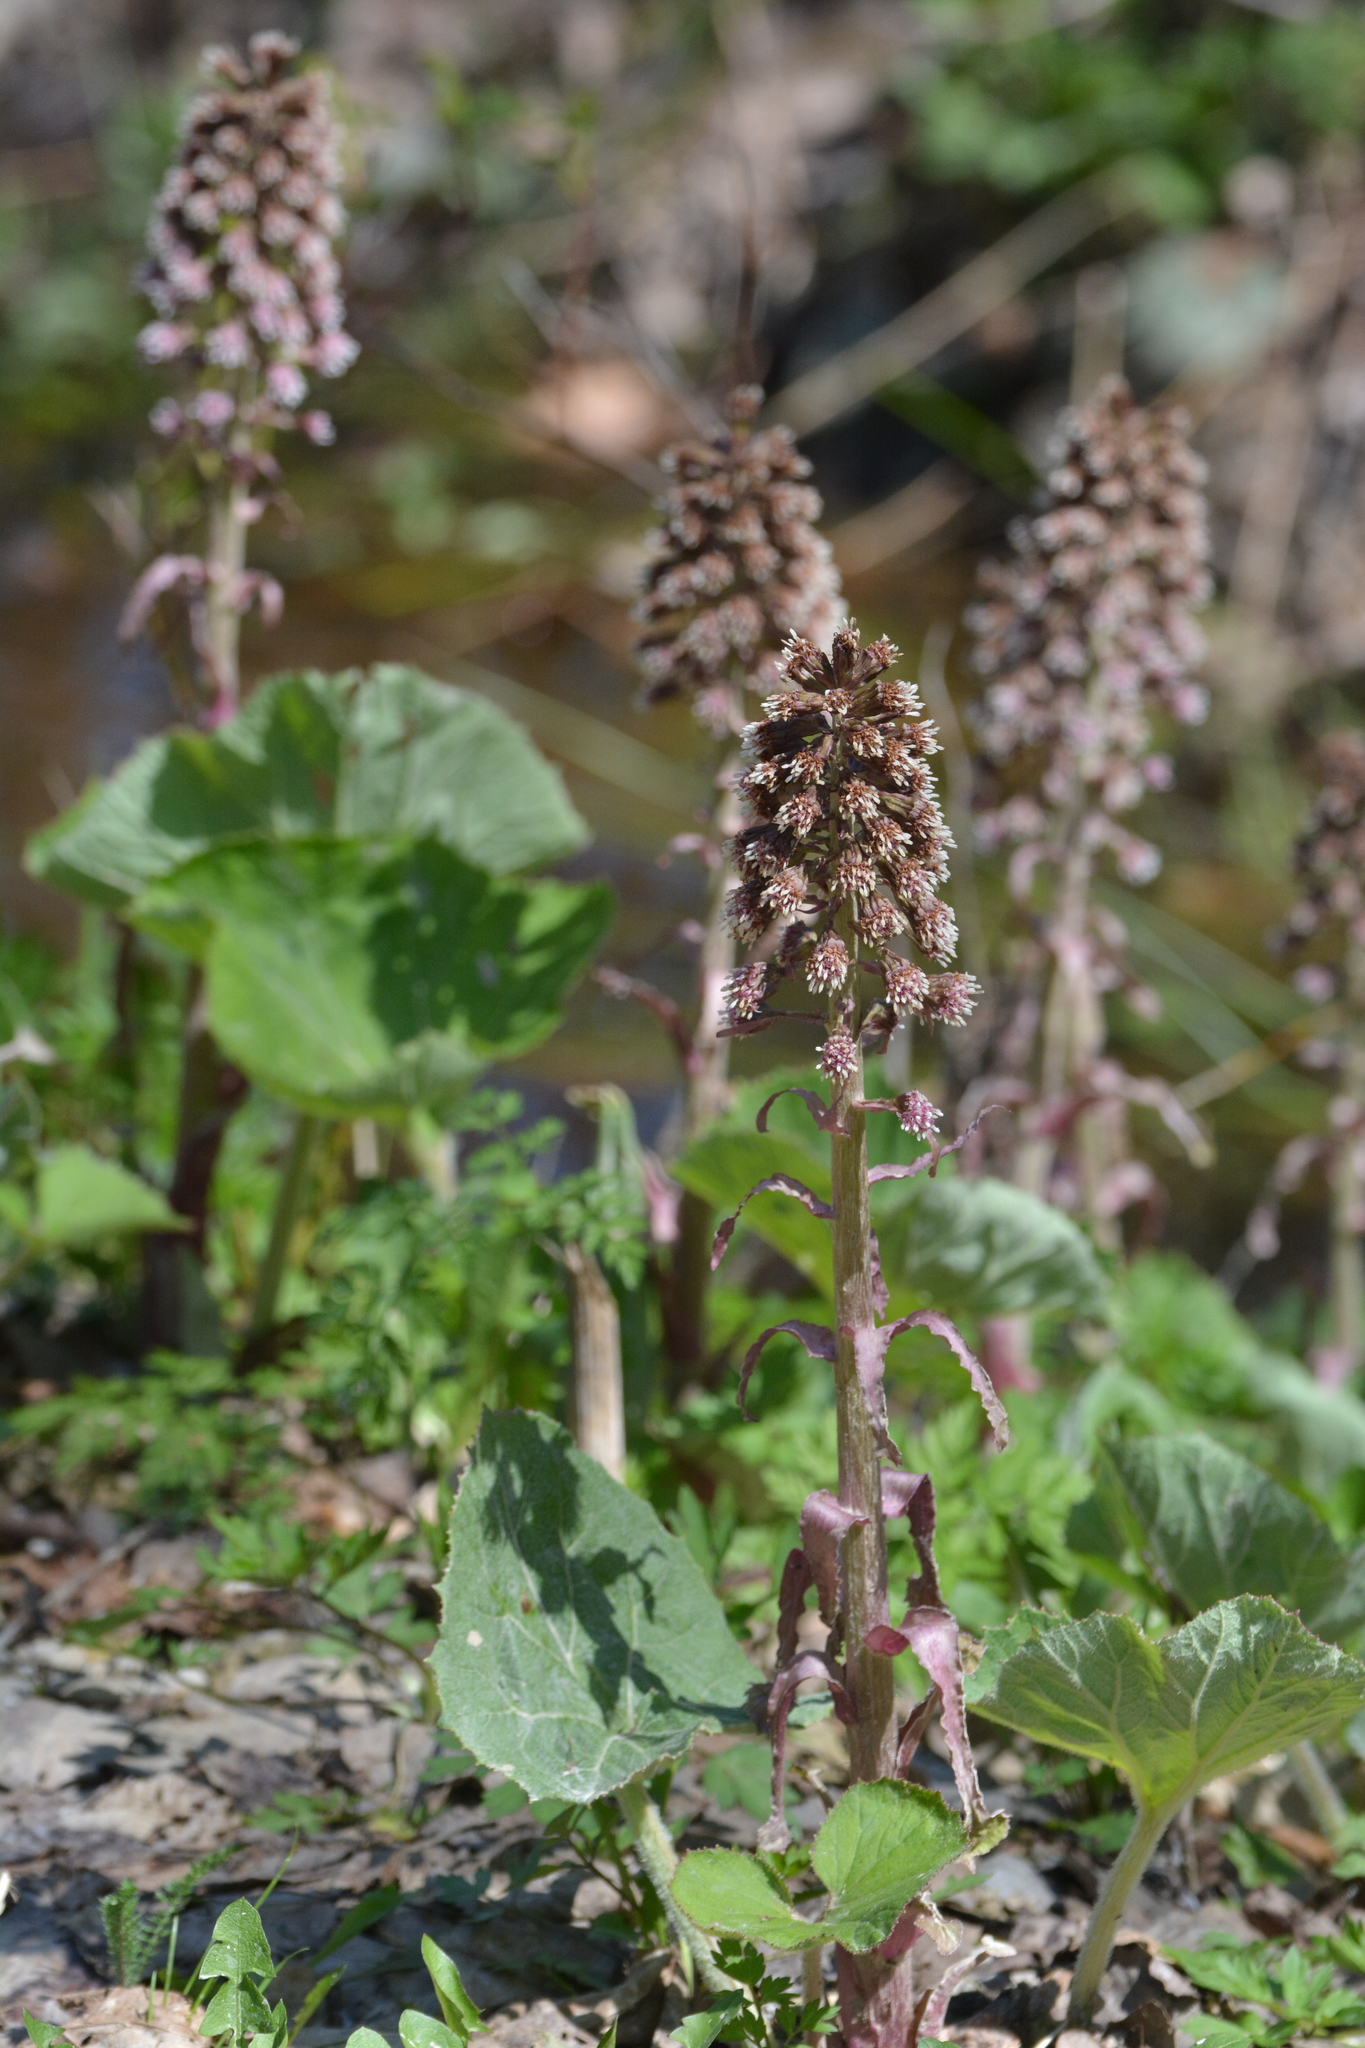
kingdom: Plantae
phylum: Tracheophyta
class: Magnoliopsida
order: Asterales
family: Asteraceae
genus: Petasites
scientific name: Petasites hybridus
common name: Butterbur
